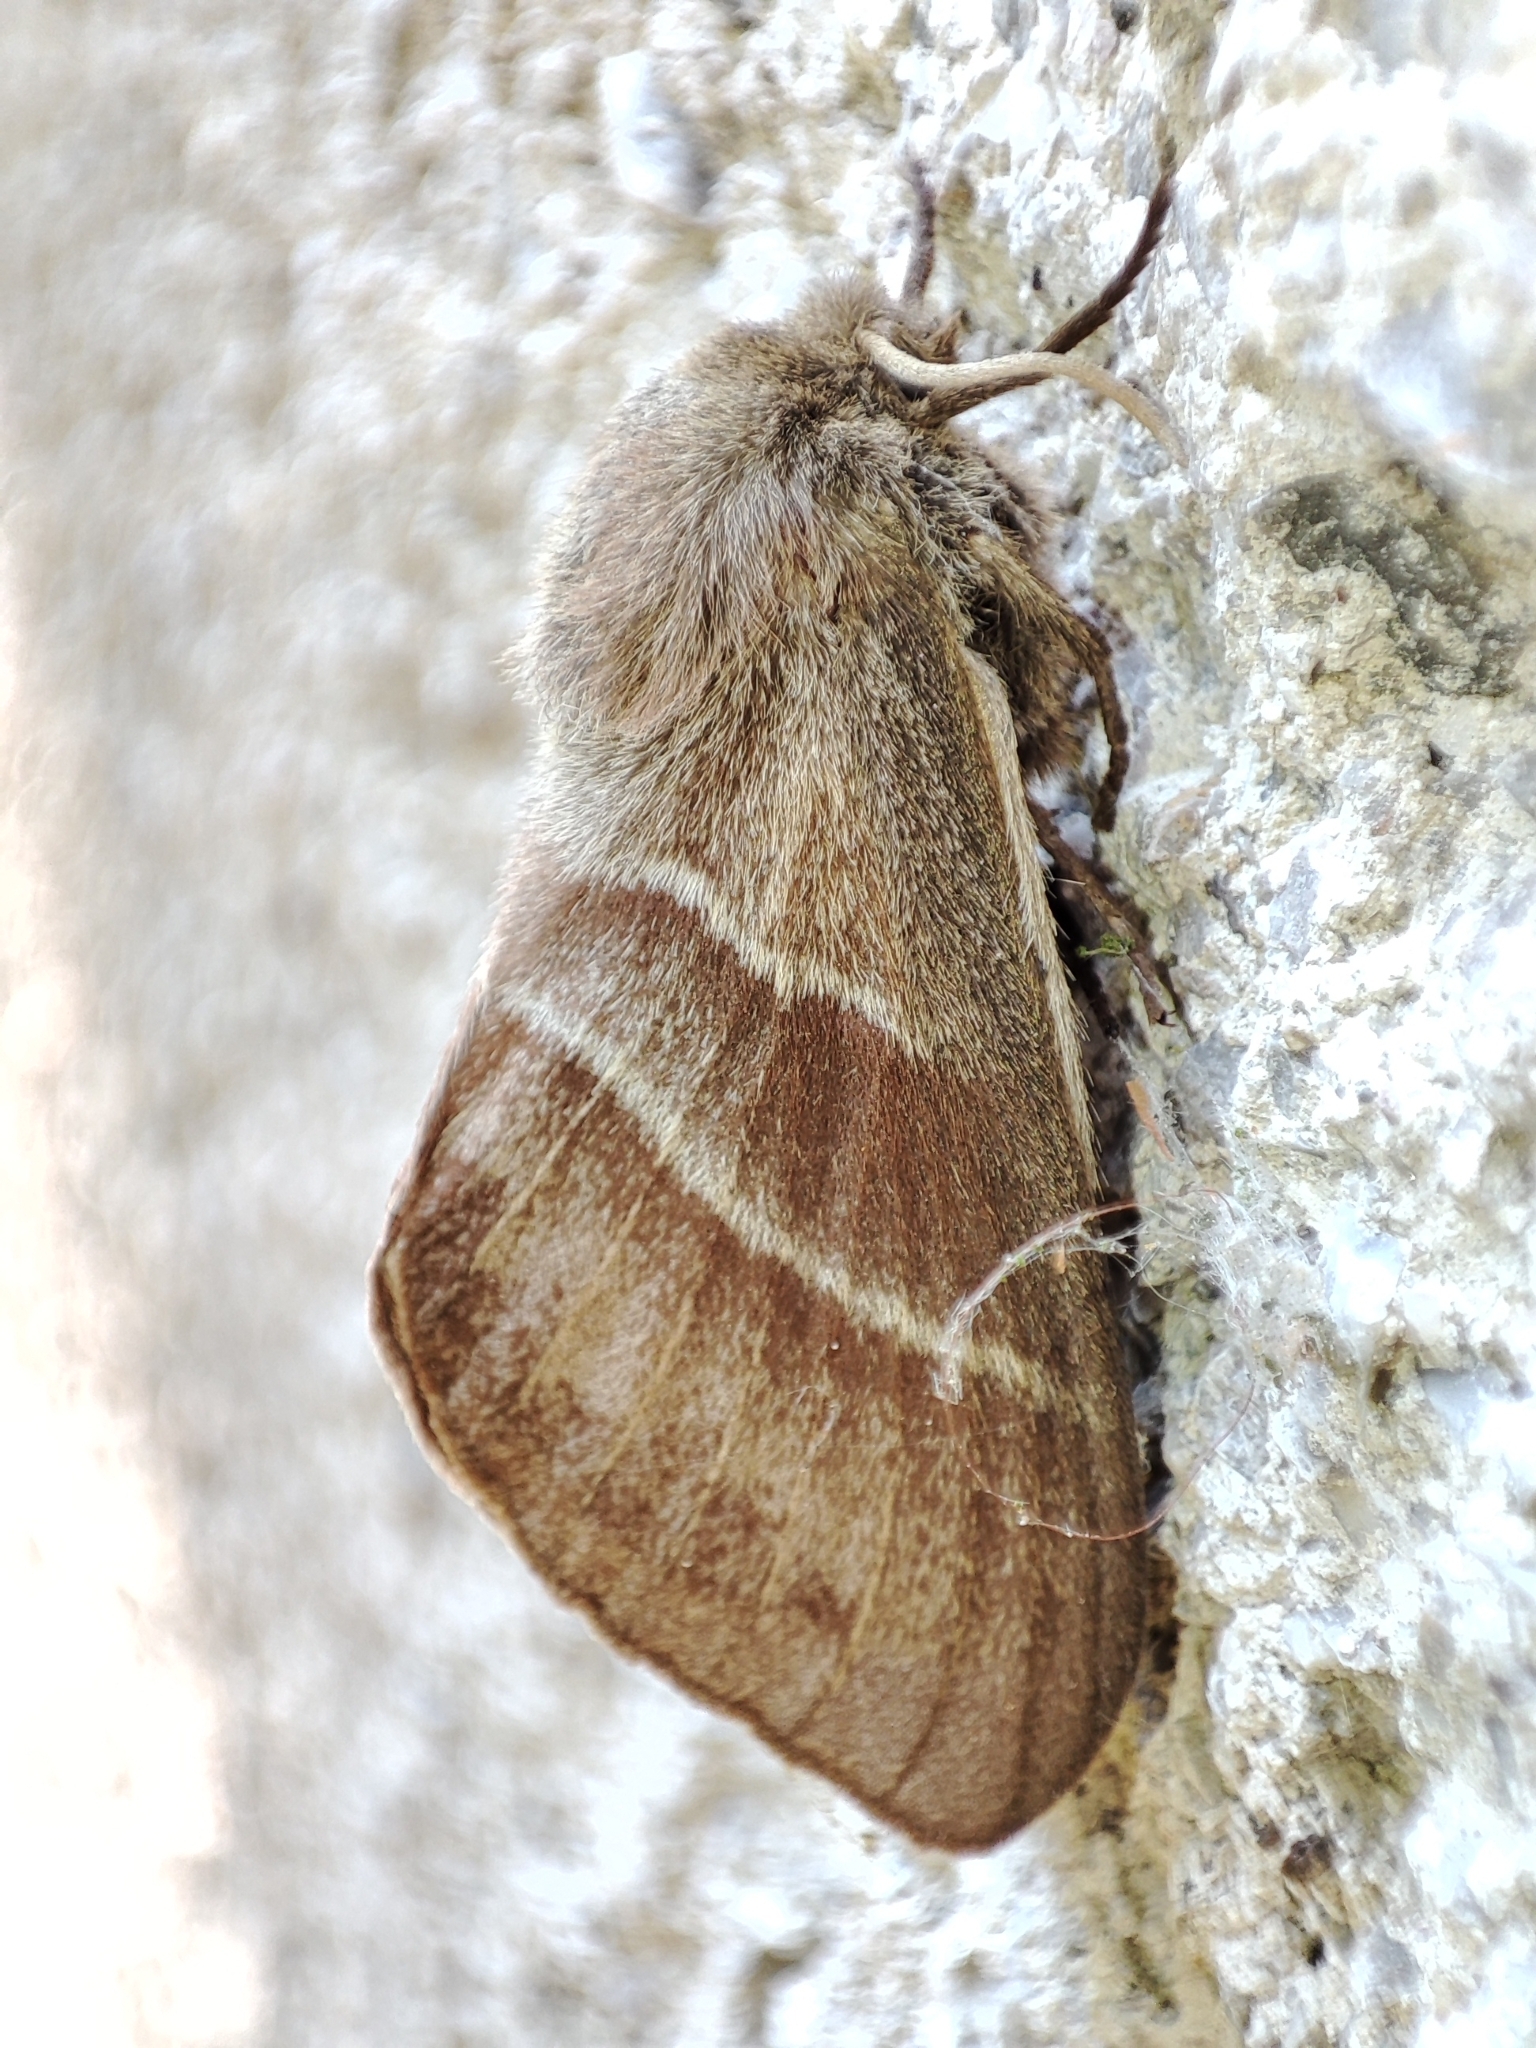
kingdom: Animalia
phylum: Arthropoda
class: Insecta
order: Lepidoptera
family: Lasiocampidae
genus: Macrothylacia
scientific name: Macrothylacia rubi
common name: Fox moth
